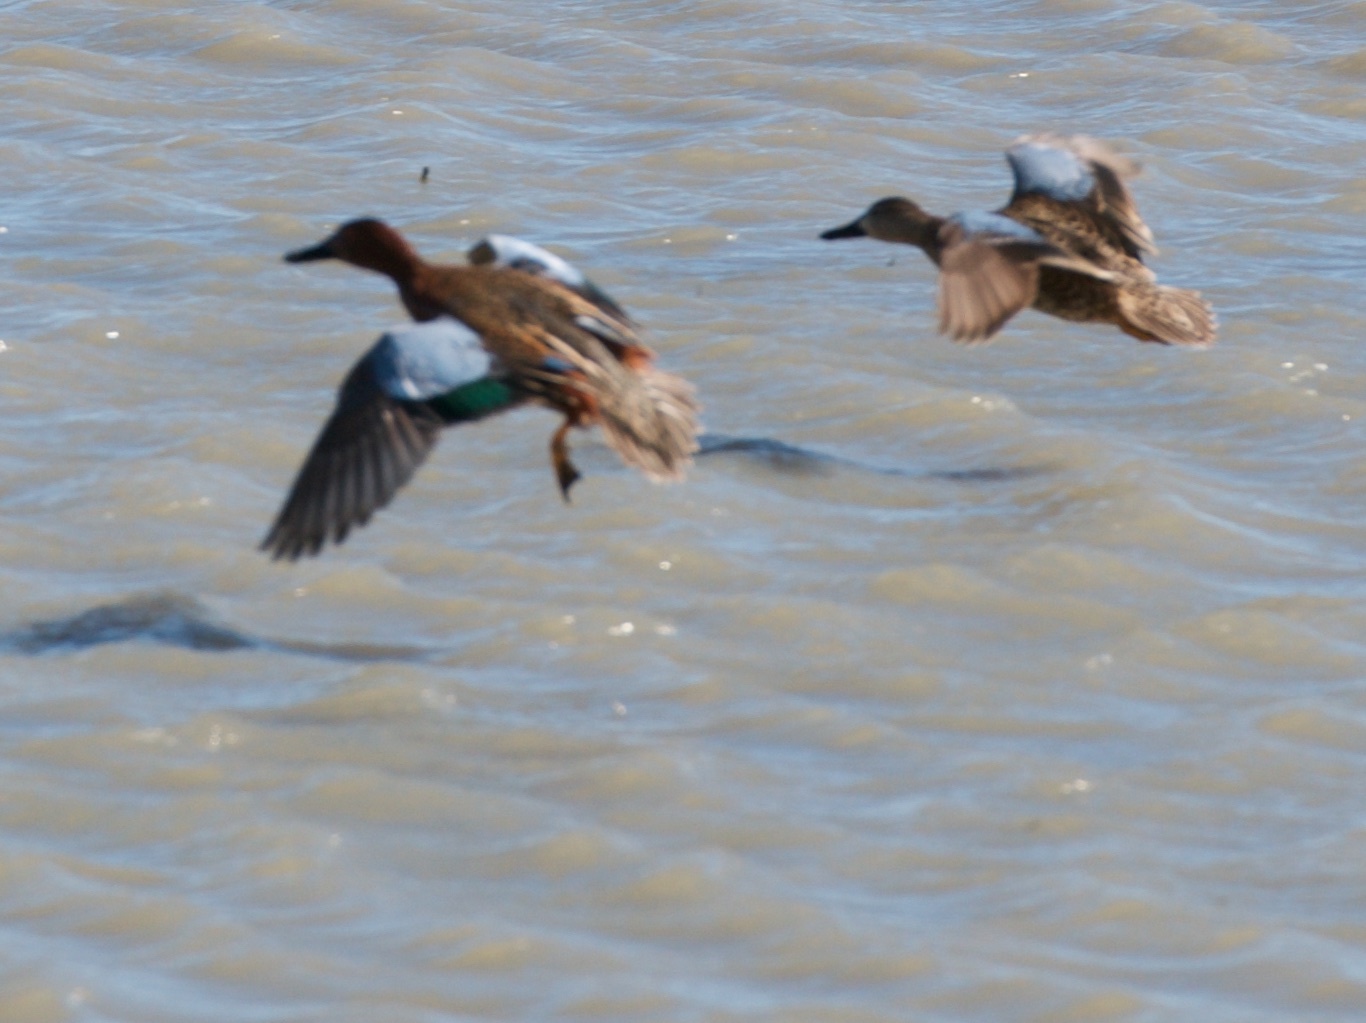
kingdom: Animalia
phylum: Chordata
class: Aves
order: Anseriformes
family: Anatidae
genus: Spatula
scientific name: Spatula cyanoptera
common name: Cinnamon teal
